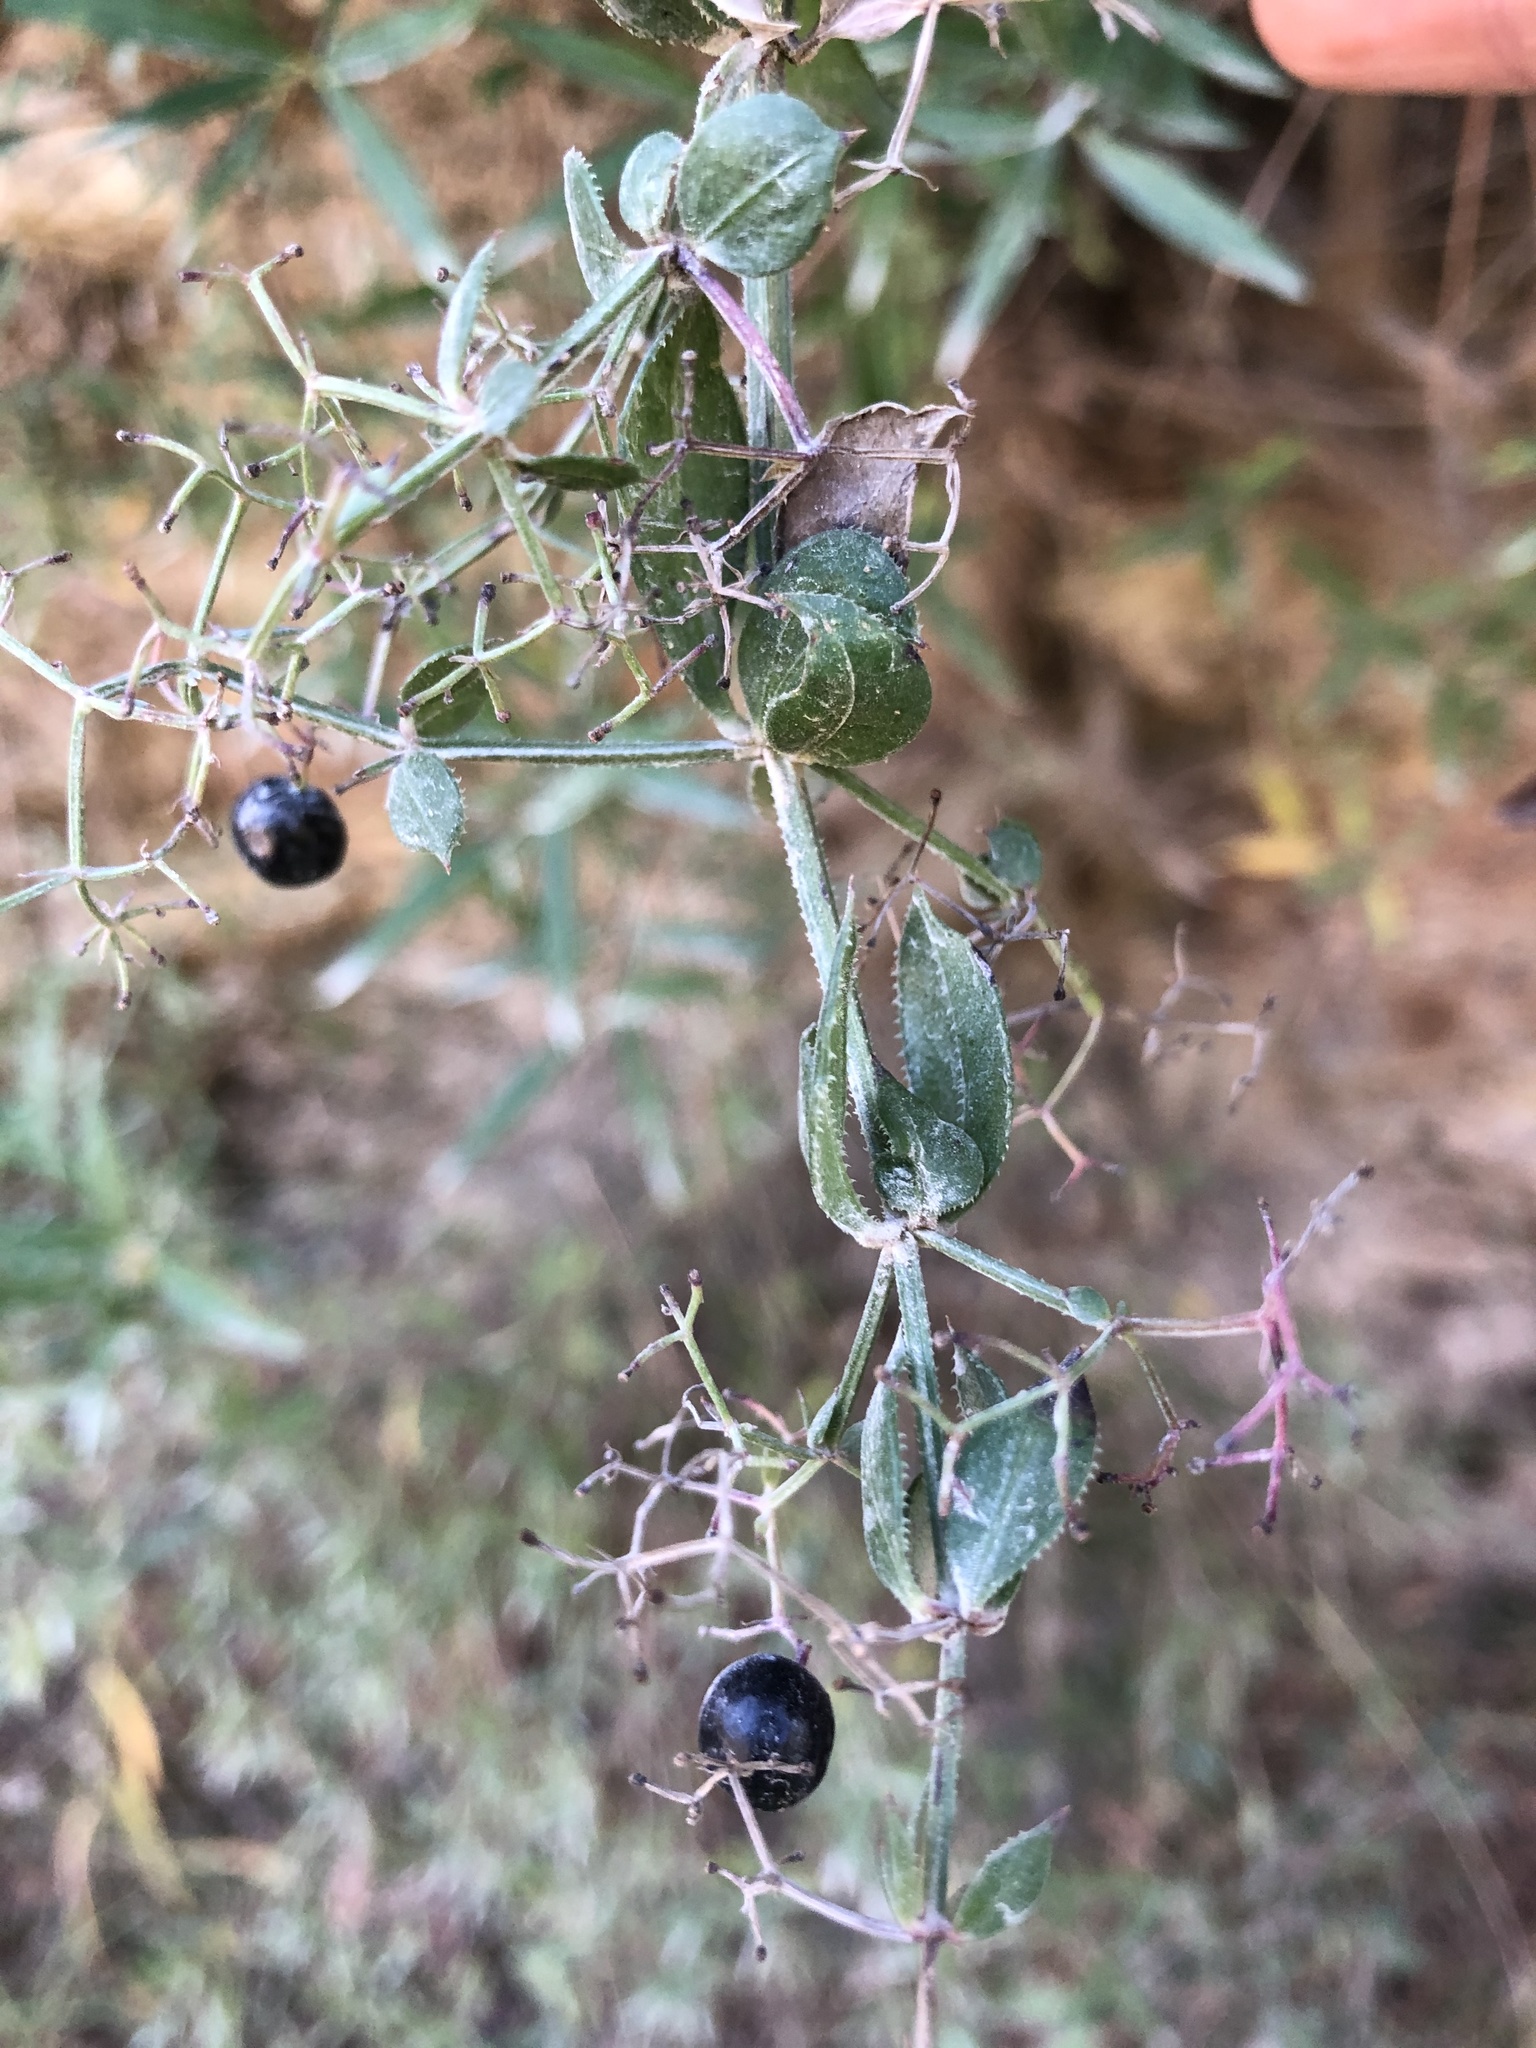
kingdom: Plantae
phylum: Tracheophyta
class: Magnoliopsida
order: Gentianales
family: Rubiaceae
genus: Rubia
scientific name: Rubia peregrina
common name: Wild madder
